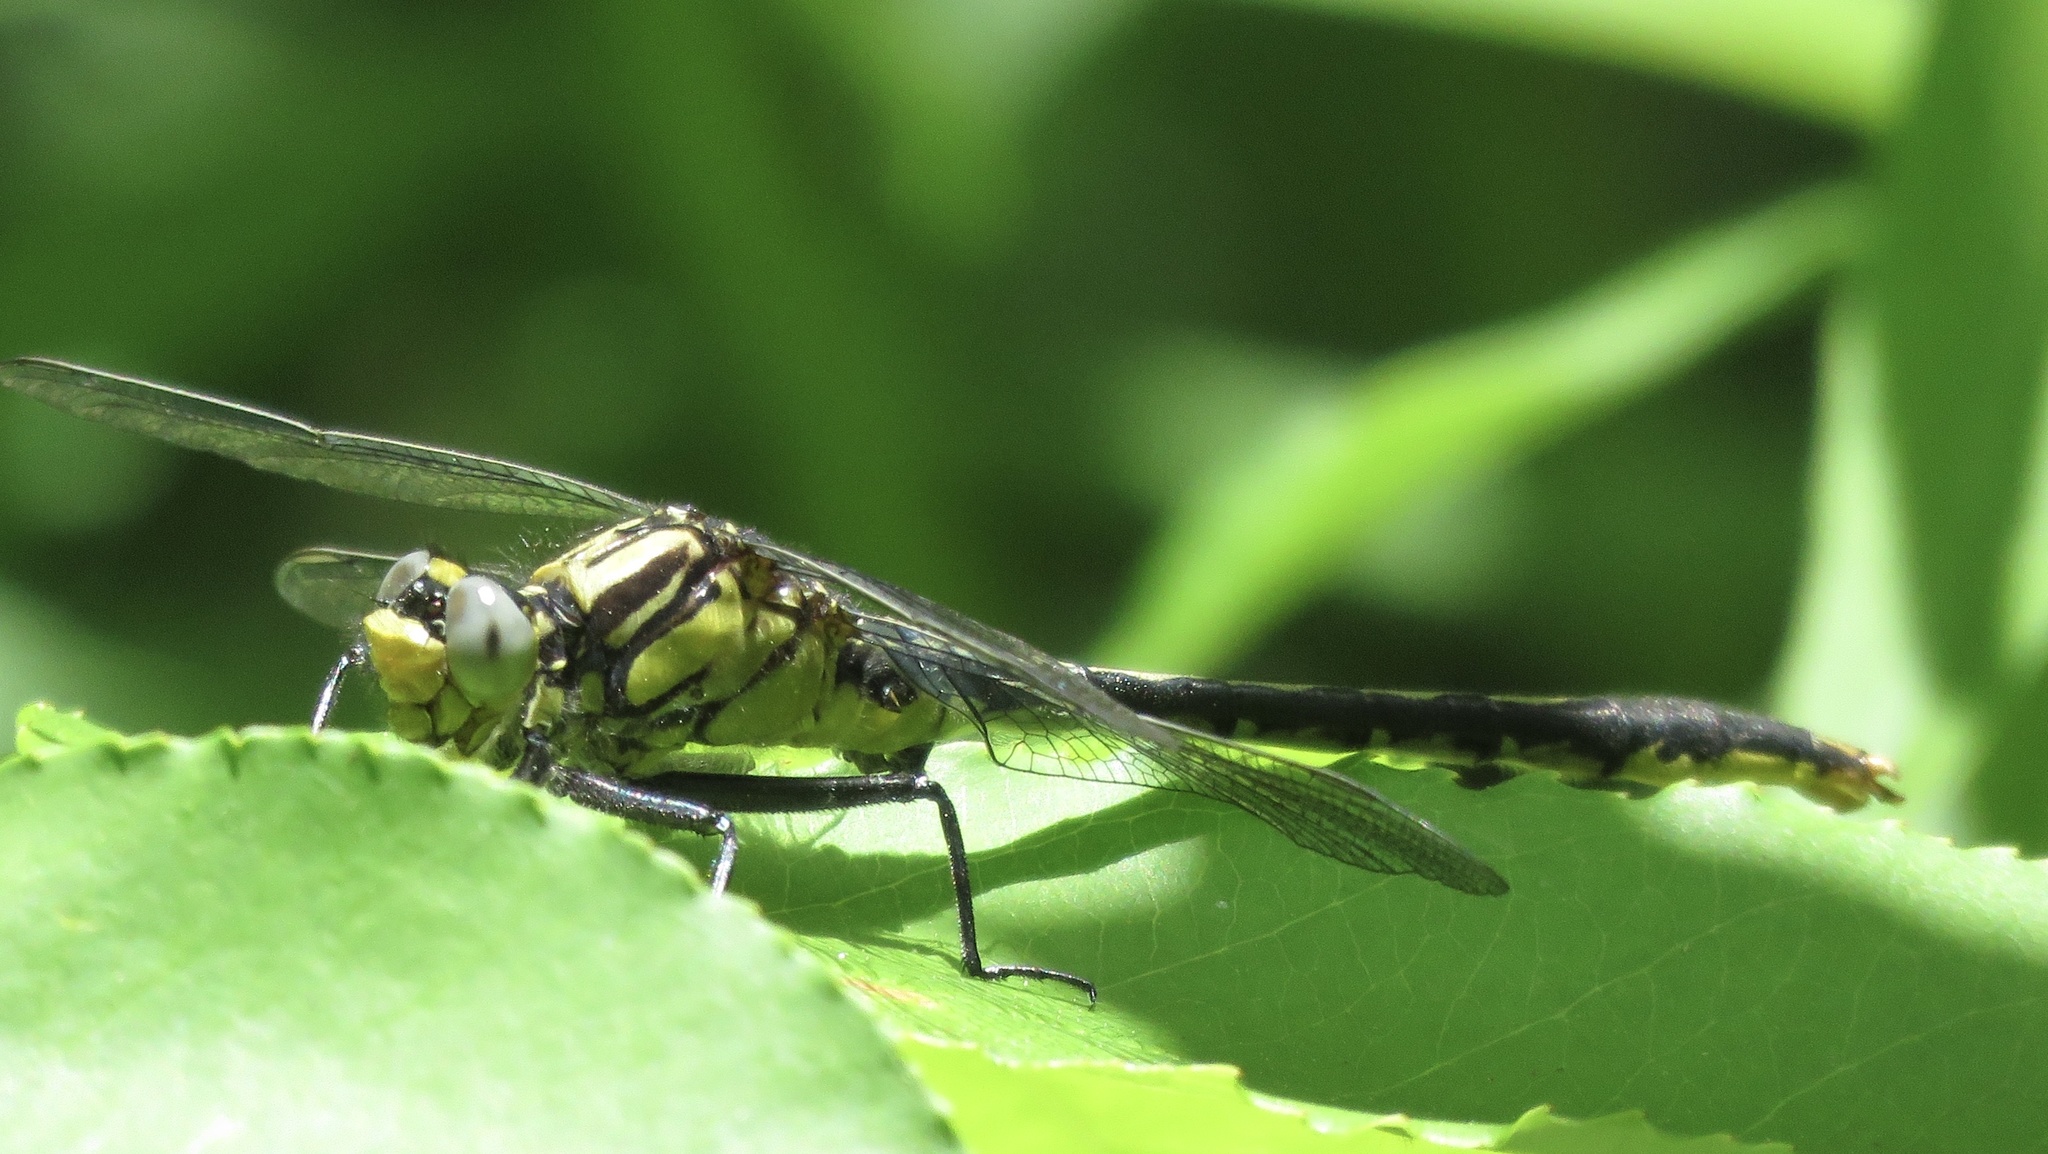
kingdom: Animalia
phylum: Arthropoda
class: Insecta
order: Odonata
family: Gomphidae
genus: Arigomphus
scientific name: Arigomphus furcifer
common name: Lilypad clubtail
